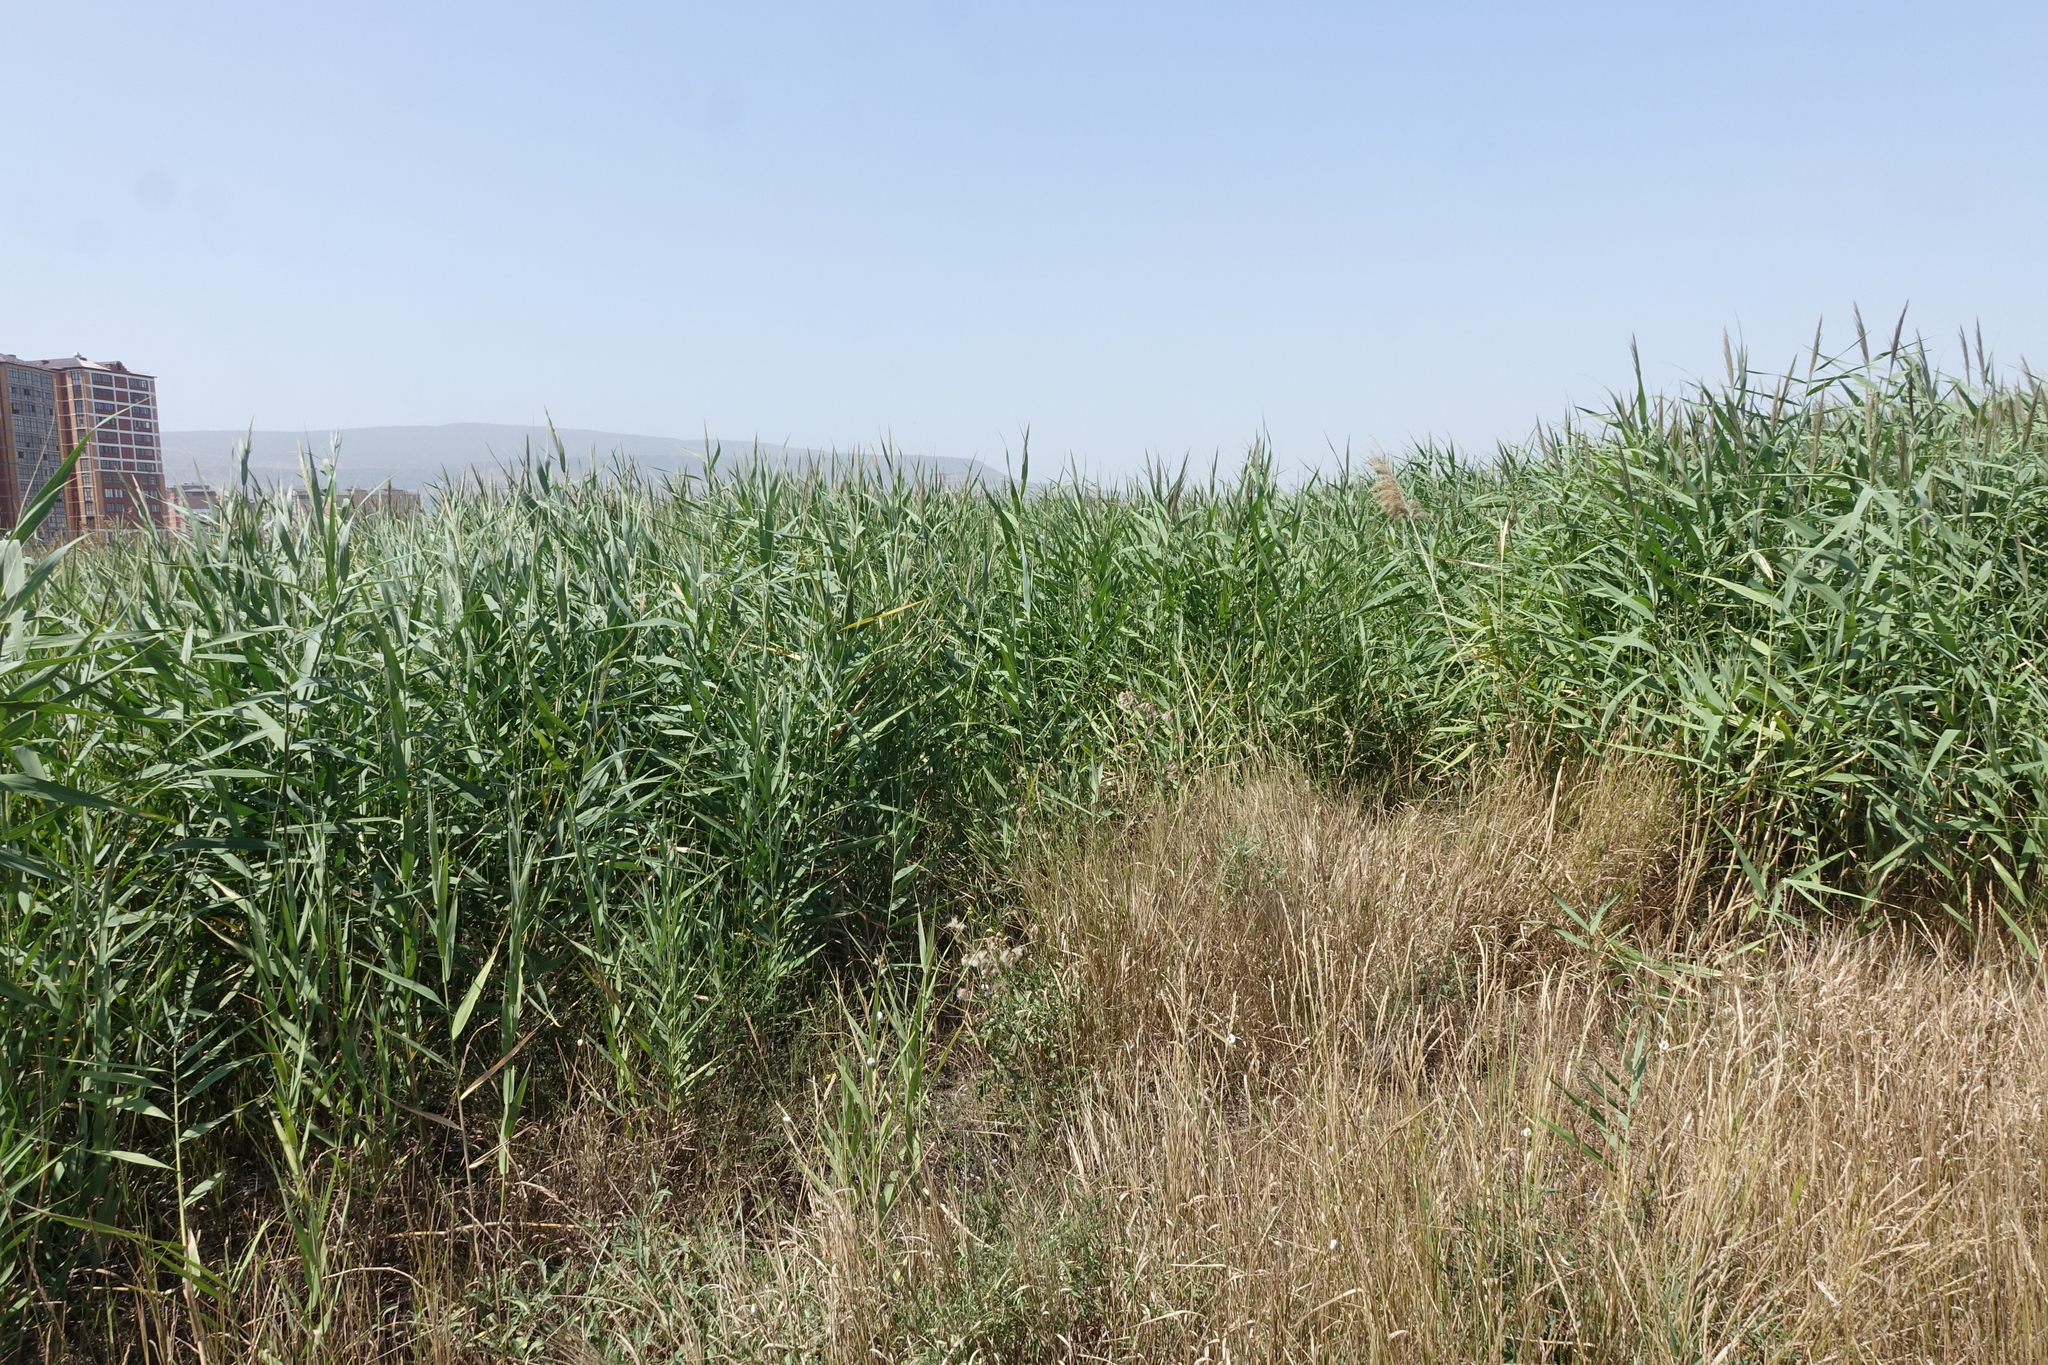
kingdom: Plantae
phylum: Tracheophyta
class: Liliopsida
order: Poales
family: Poaceae
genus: Phragmites
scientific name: Phragmites australis
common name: Common reed
